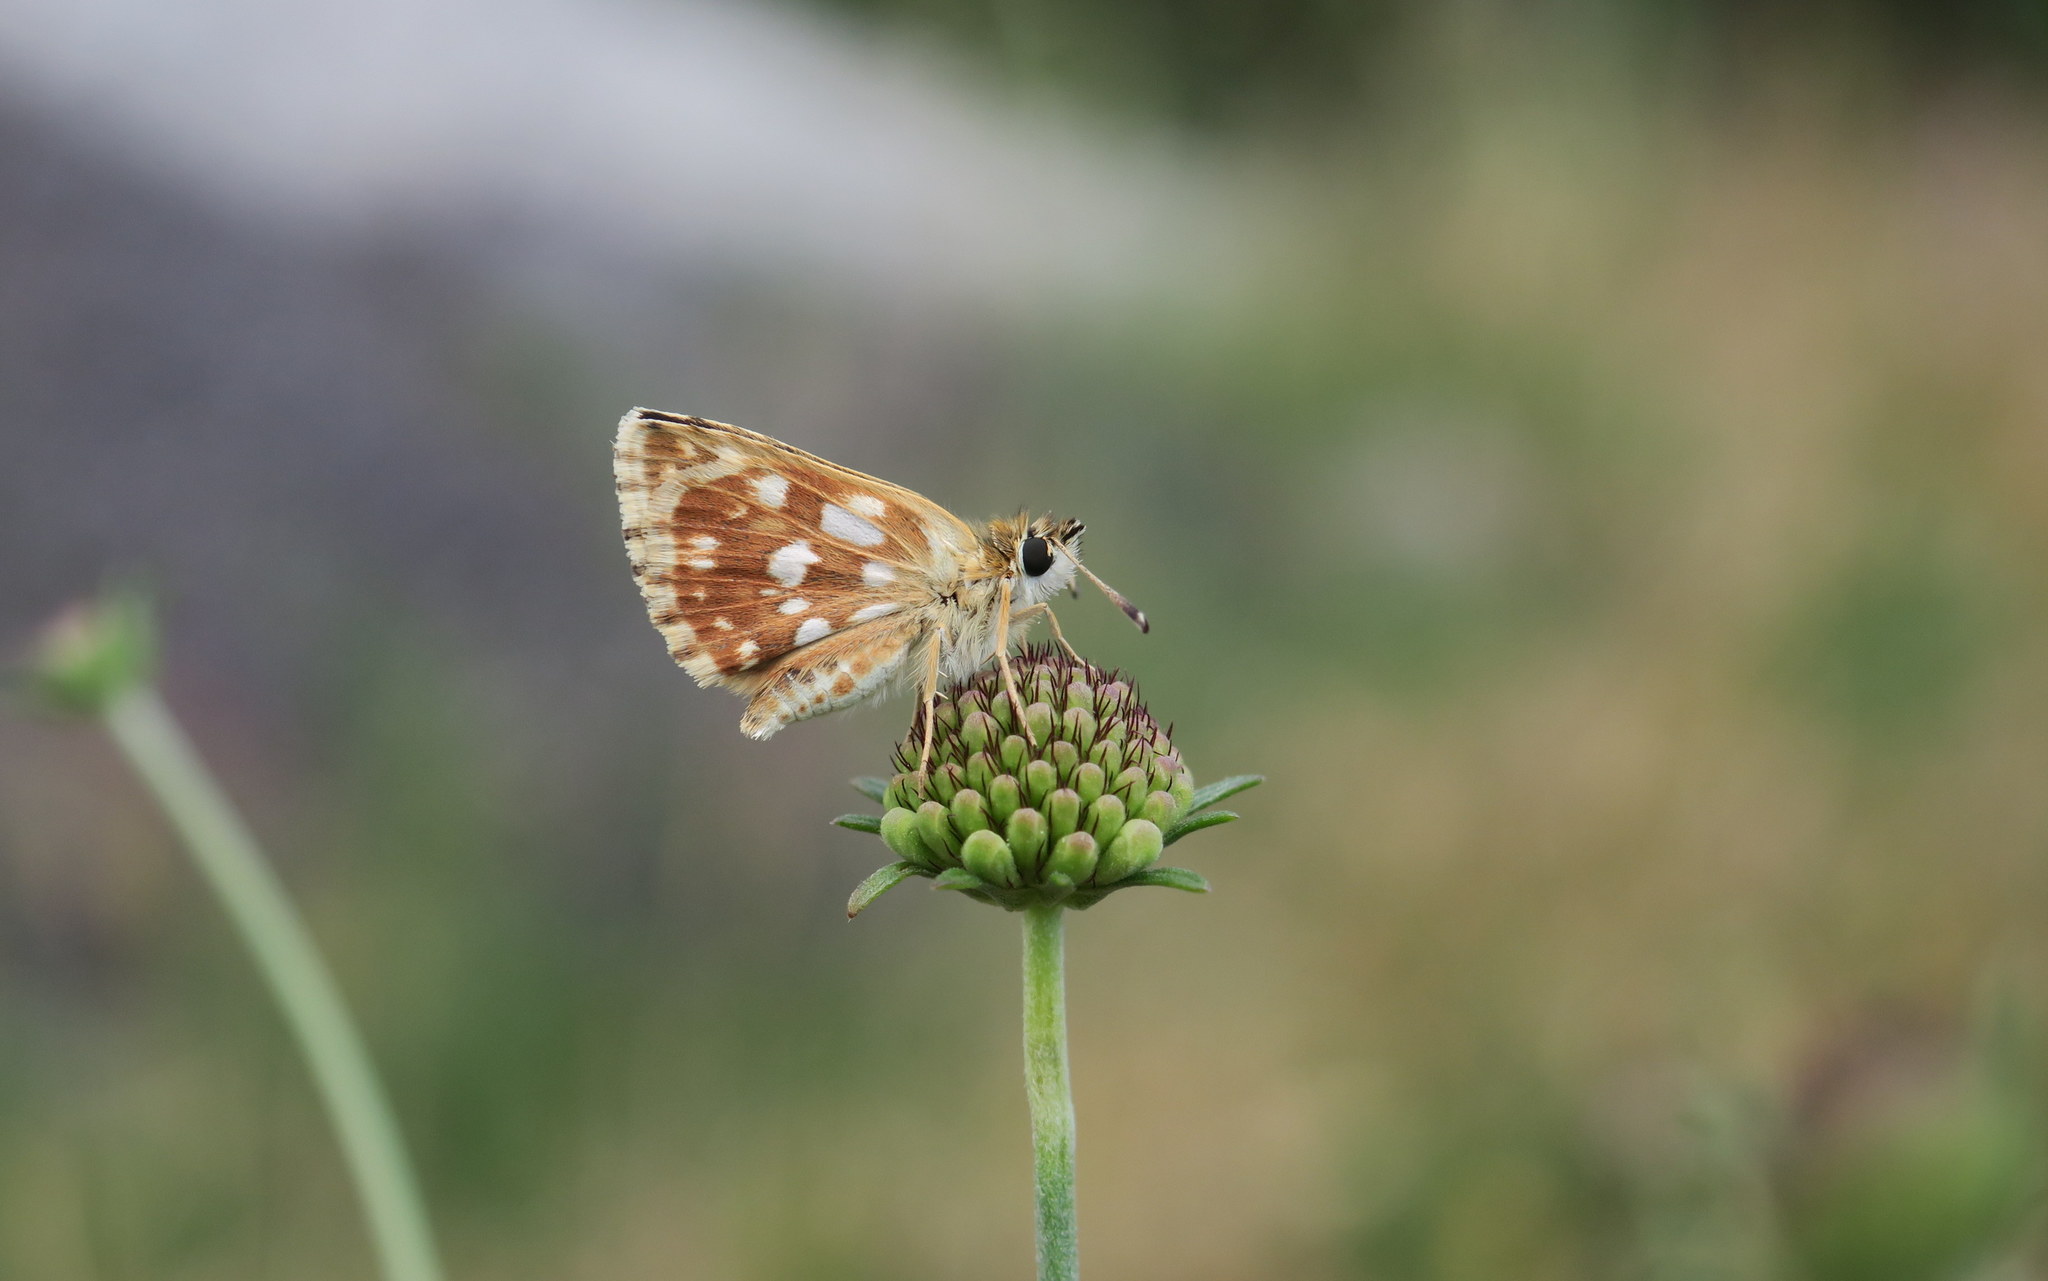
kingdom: Animalia
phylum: Arthropoda
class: Insecta
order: Lepidoptera
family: Hesperiidae
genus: Spialia
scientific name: Spialia sertorius
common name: Red underwing skipper
